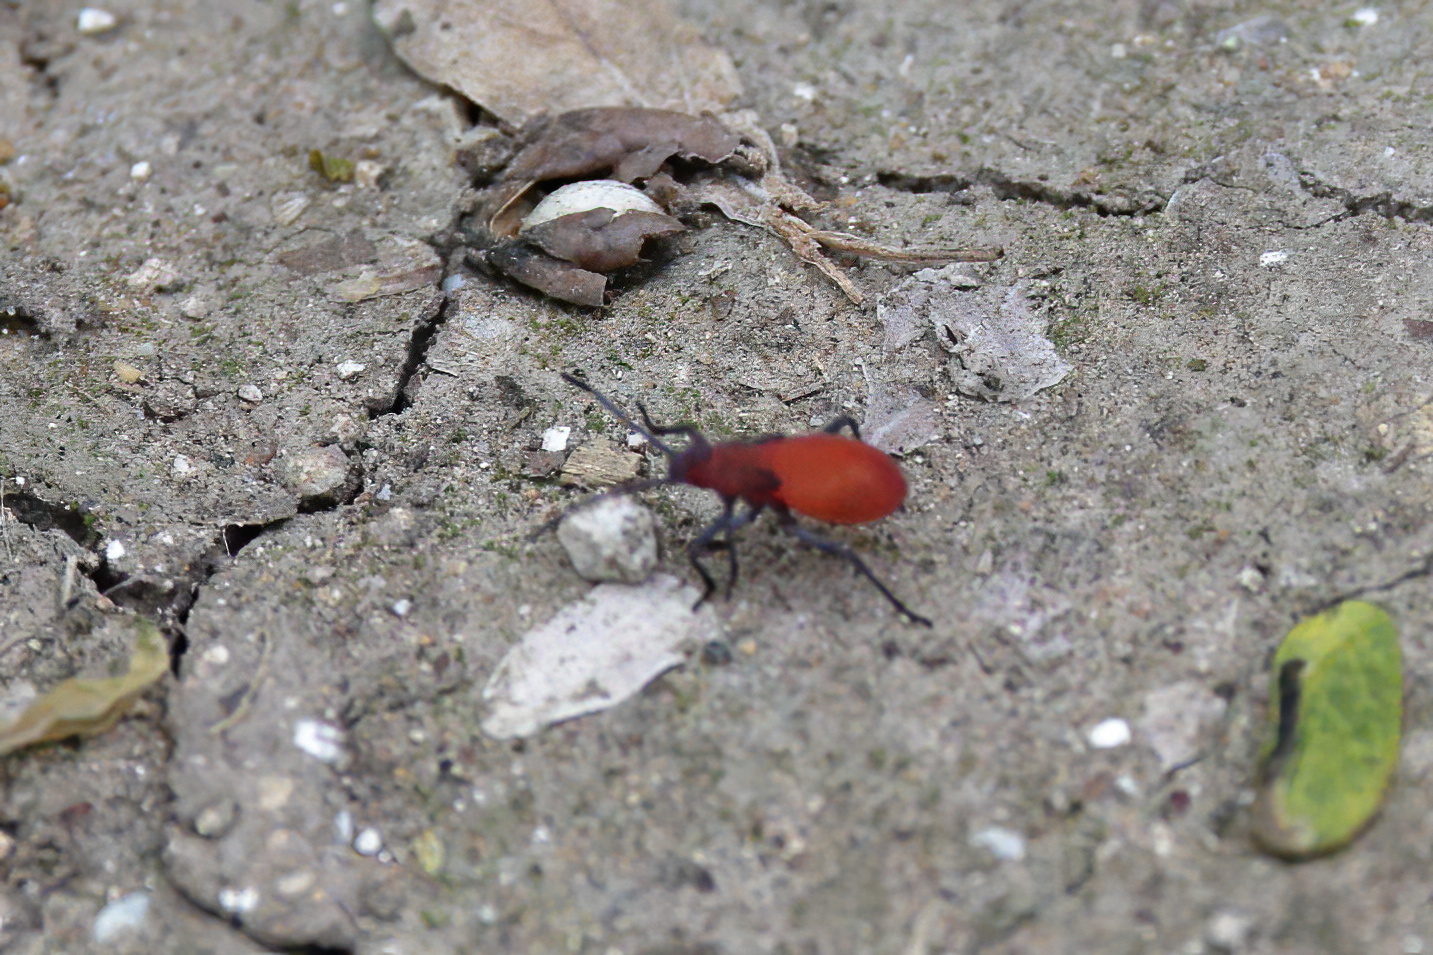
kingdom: Animalia
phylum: Arthropoda
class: Insecta
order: Hemiptera
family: Rhopalidae
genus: Jadera
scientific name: Jadera haematoloma
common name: Red-shouldered bug
